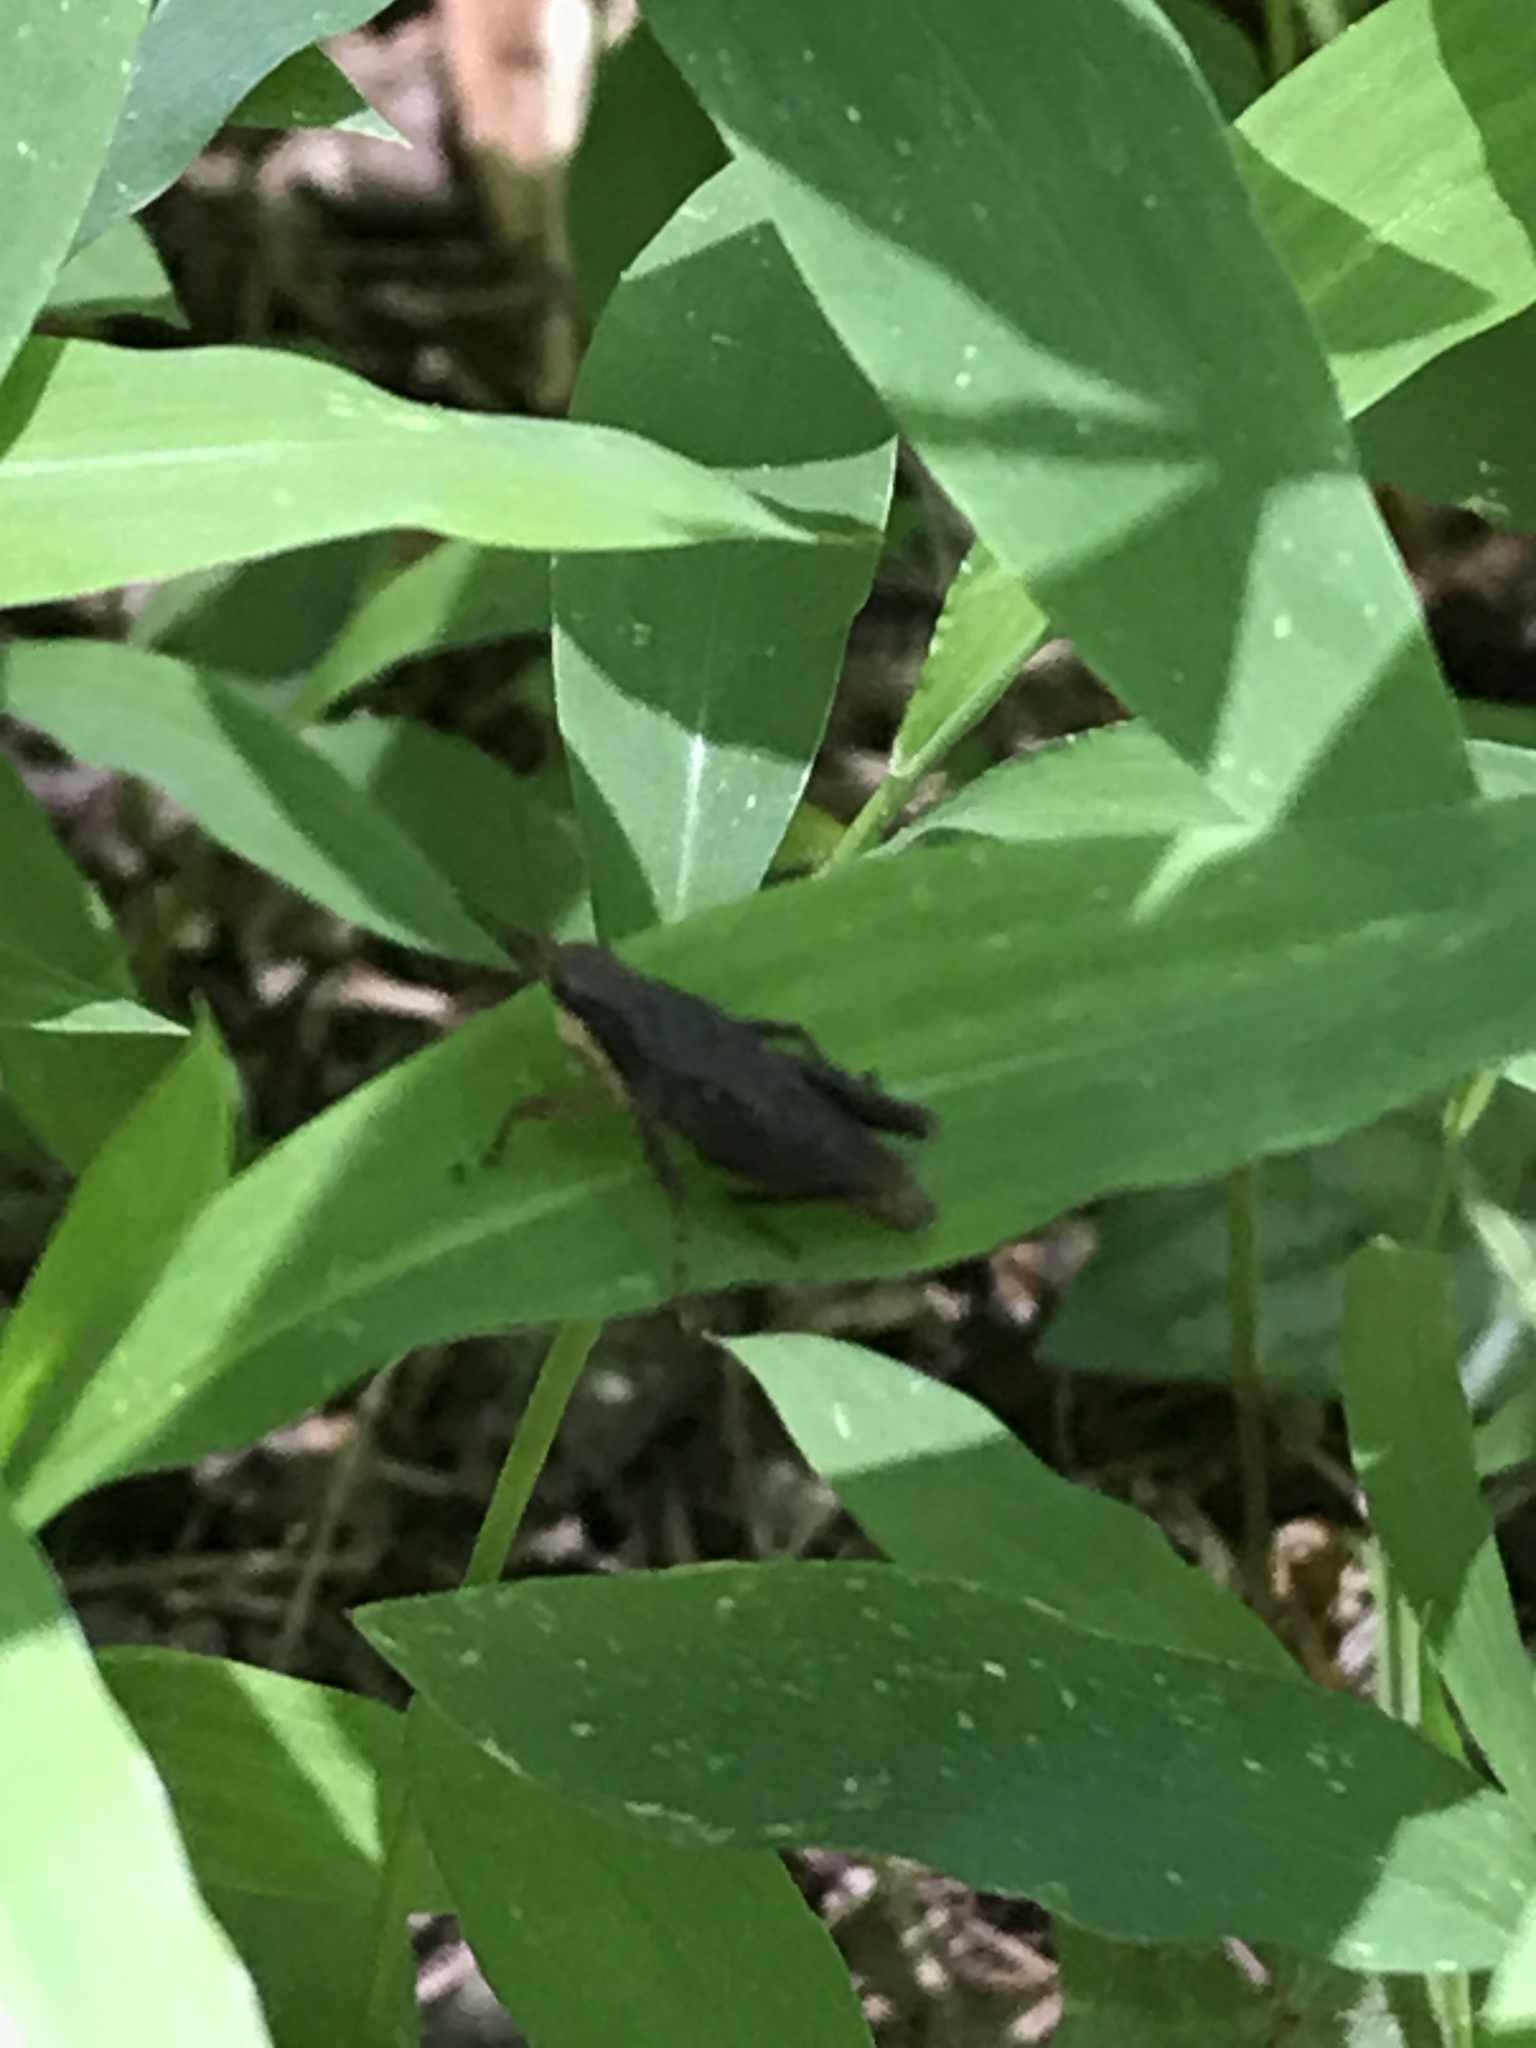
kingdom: Animalia
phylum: Arthropoda
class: Insecta
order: Orthoptera
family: Tetrigidae
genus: Tettigidea
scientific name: Tettigidea laterale
